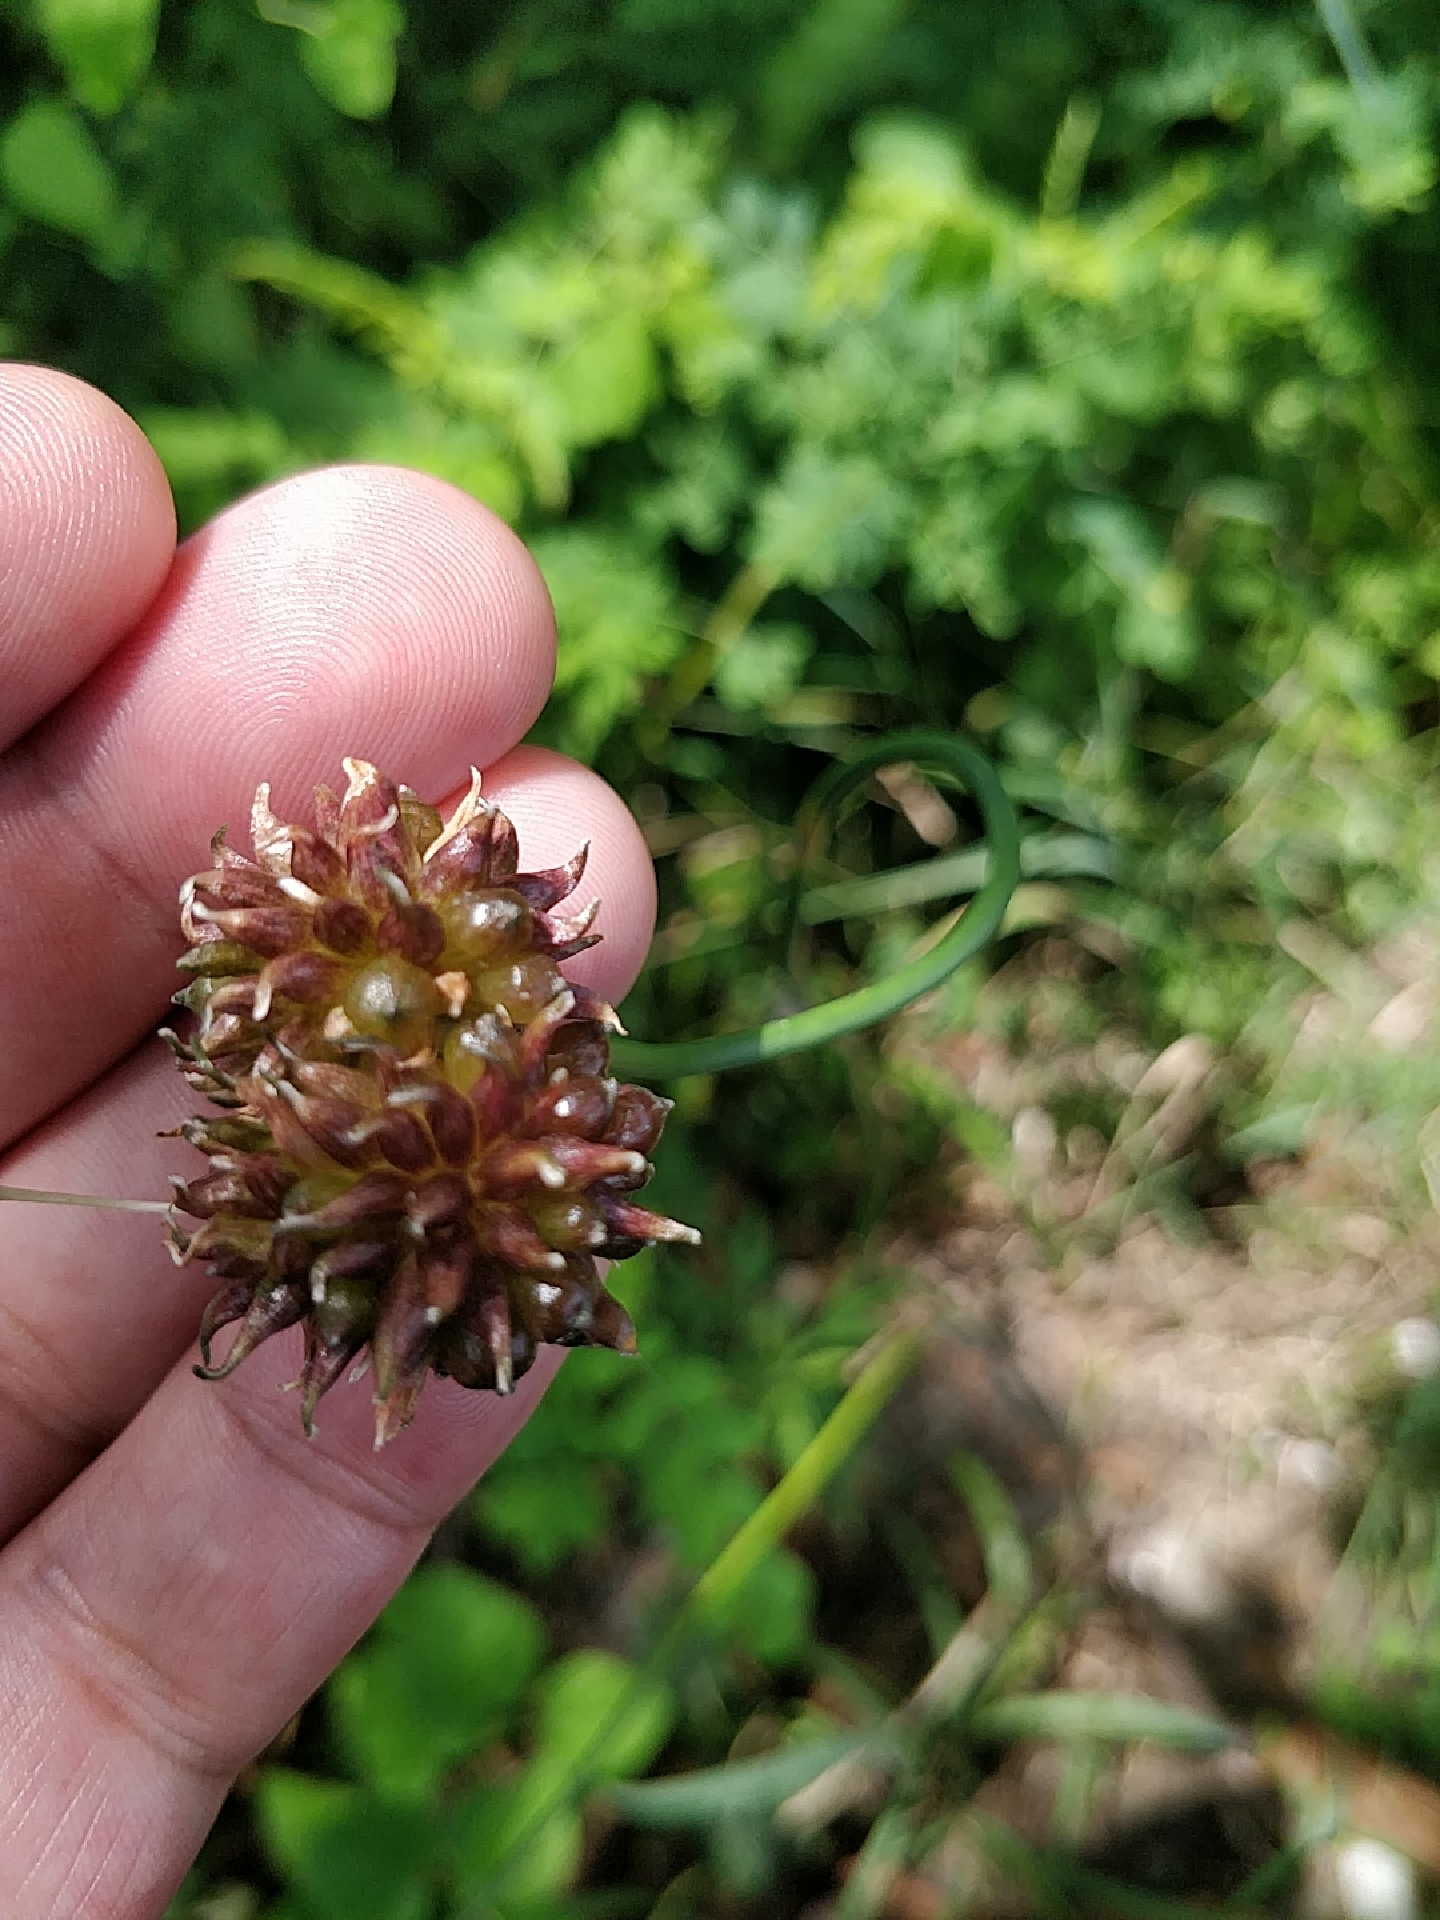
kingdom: Plantae
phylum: Tracheophyta
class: Liliopsida
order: Asparagales
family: Amaryllidaceae
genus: Allium
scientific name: Allium vineale
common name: Crow garlic
